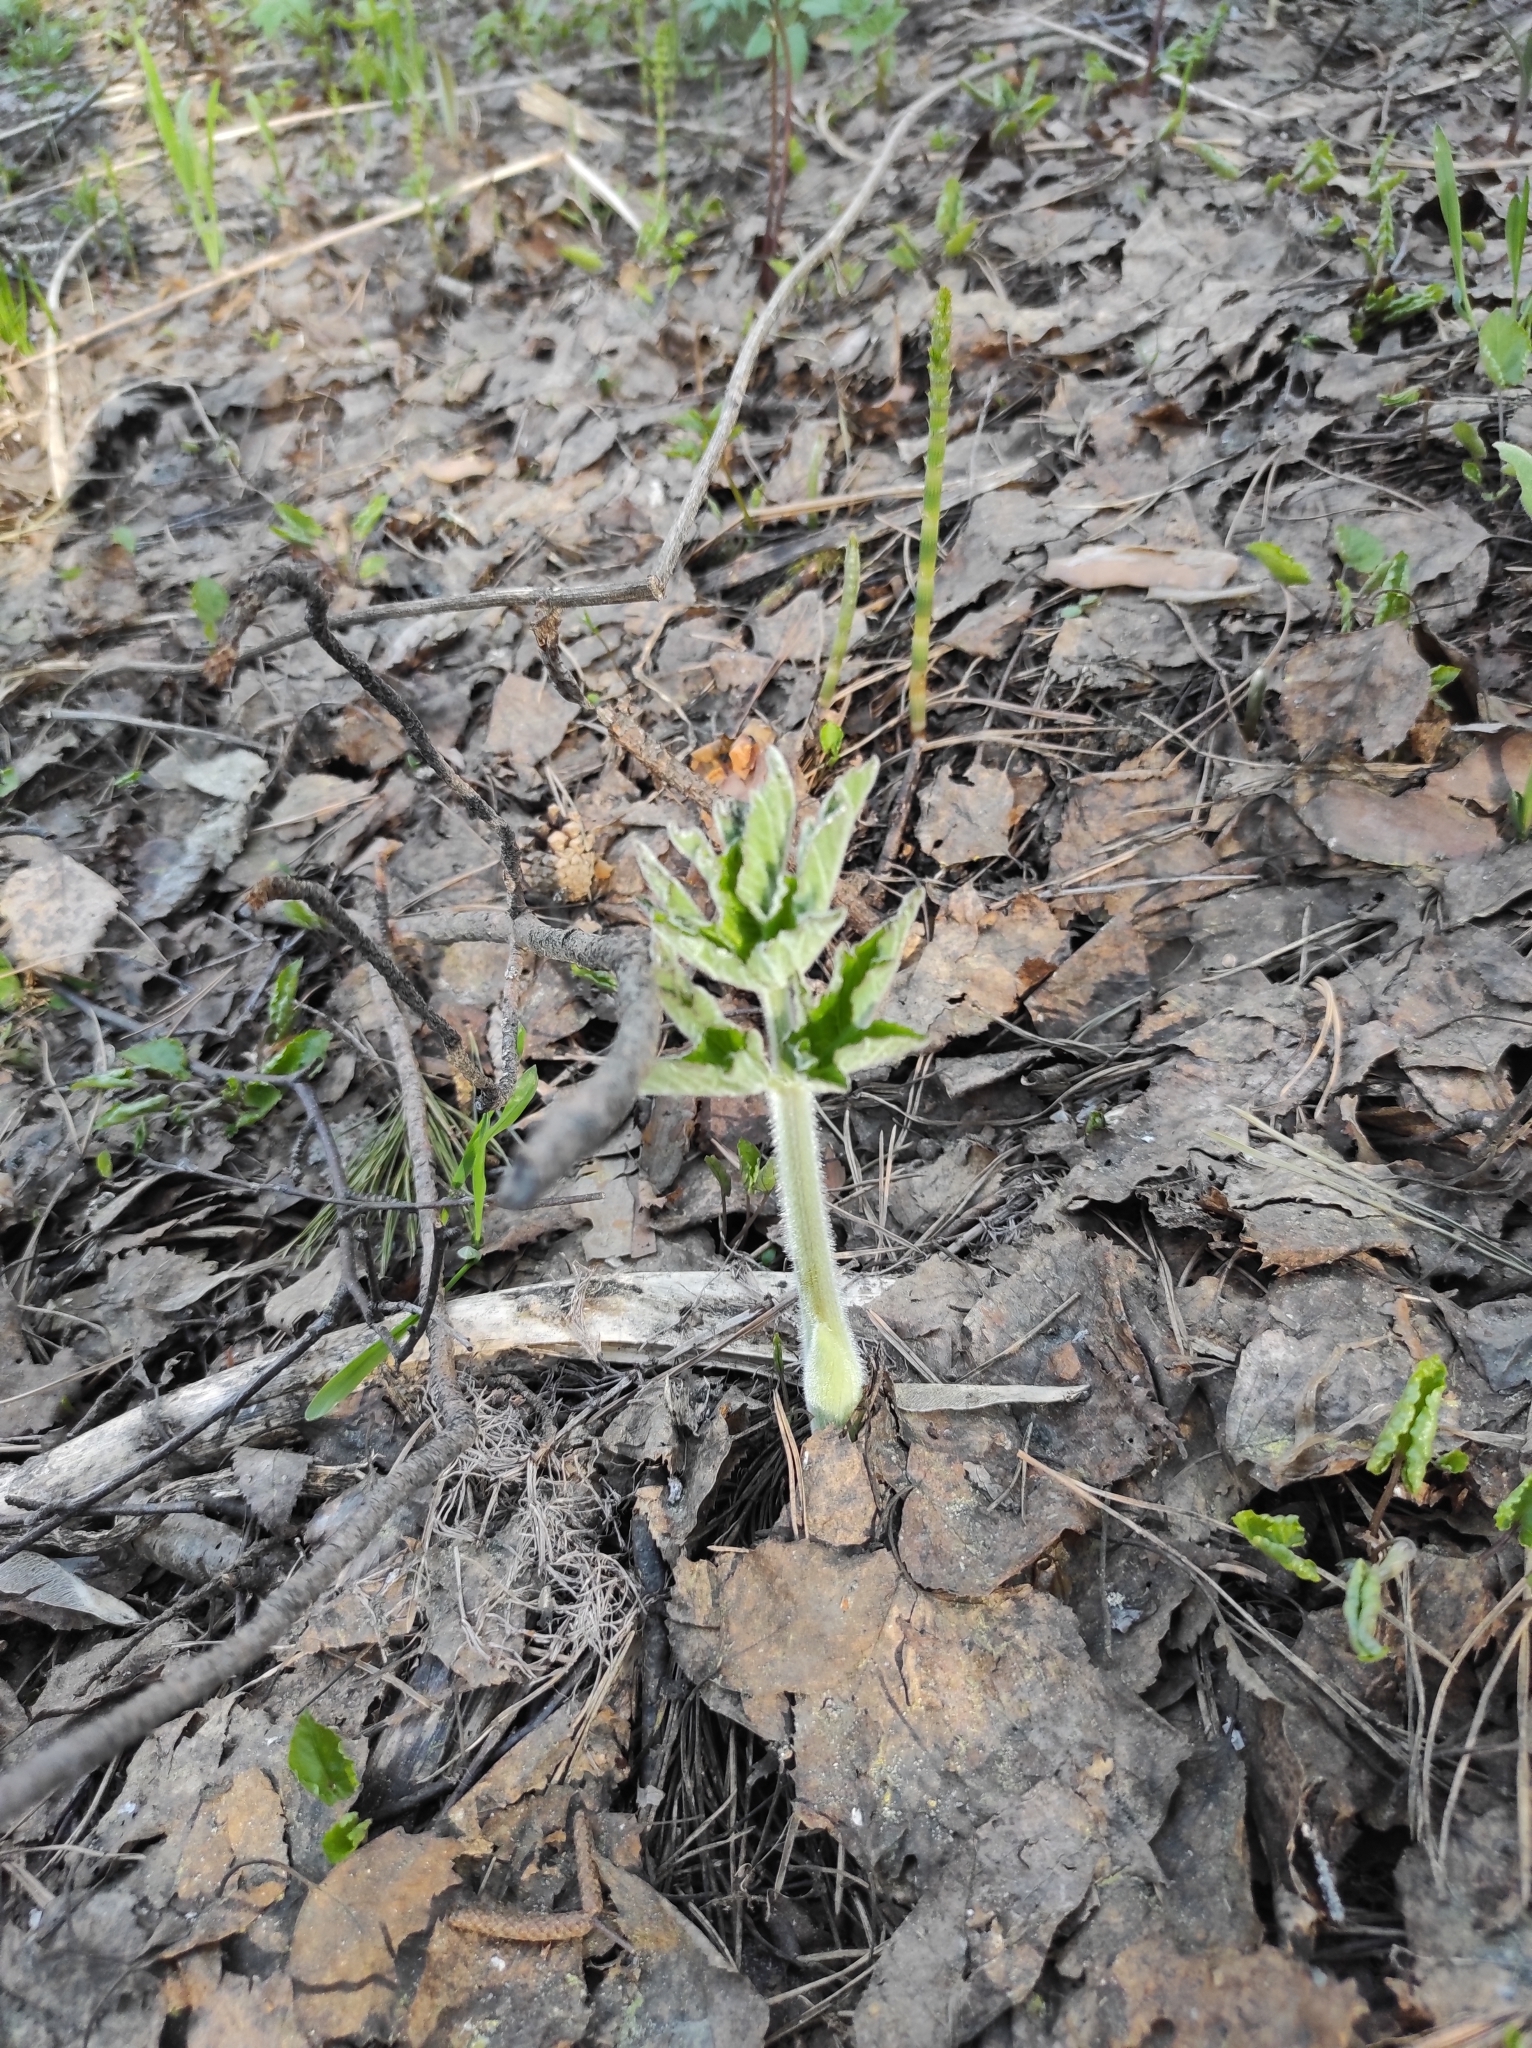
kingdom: Plantae
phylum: Tracheophyta
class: Magnoliopsida
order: Apiales
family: Apiaceae
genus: Heracleum
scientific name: Heracleum dissectum
